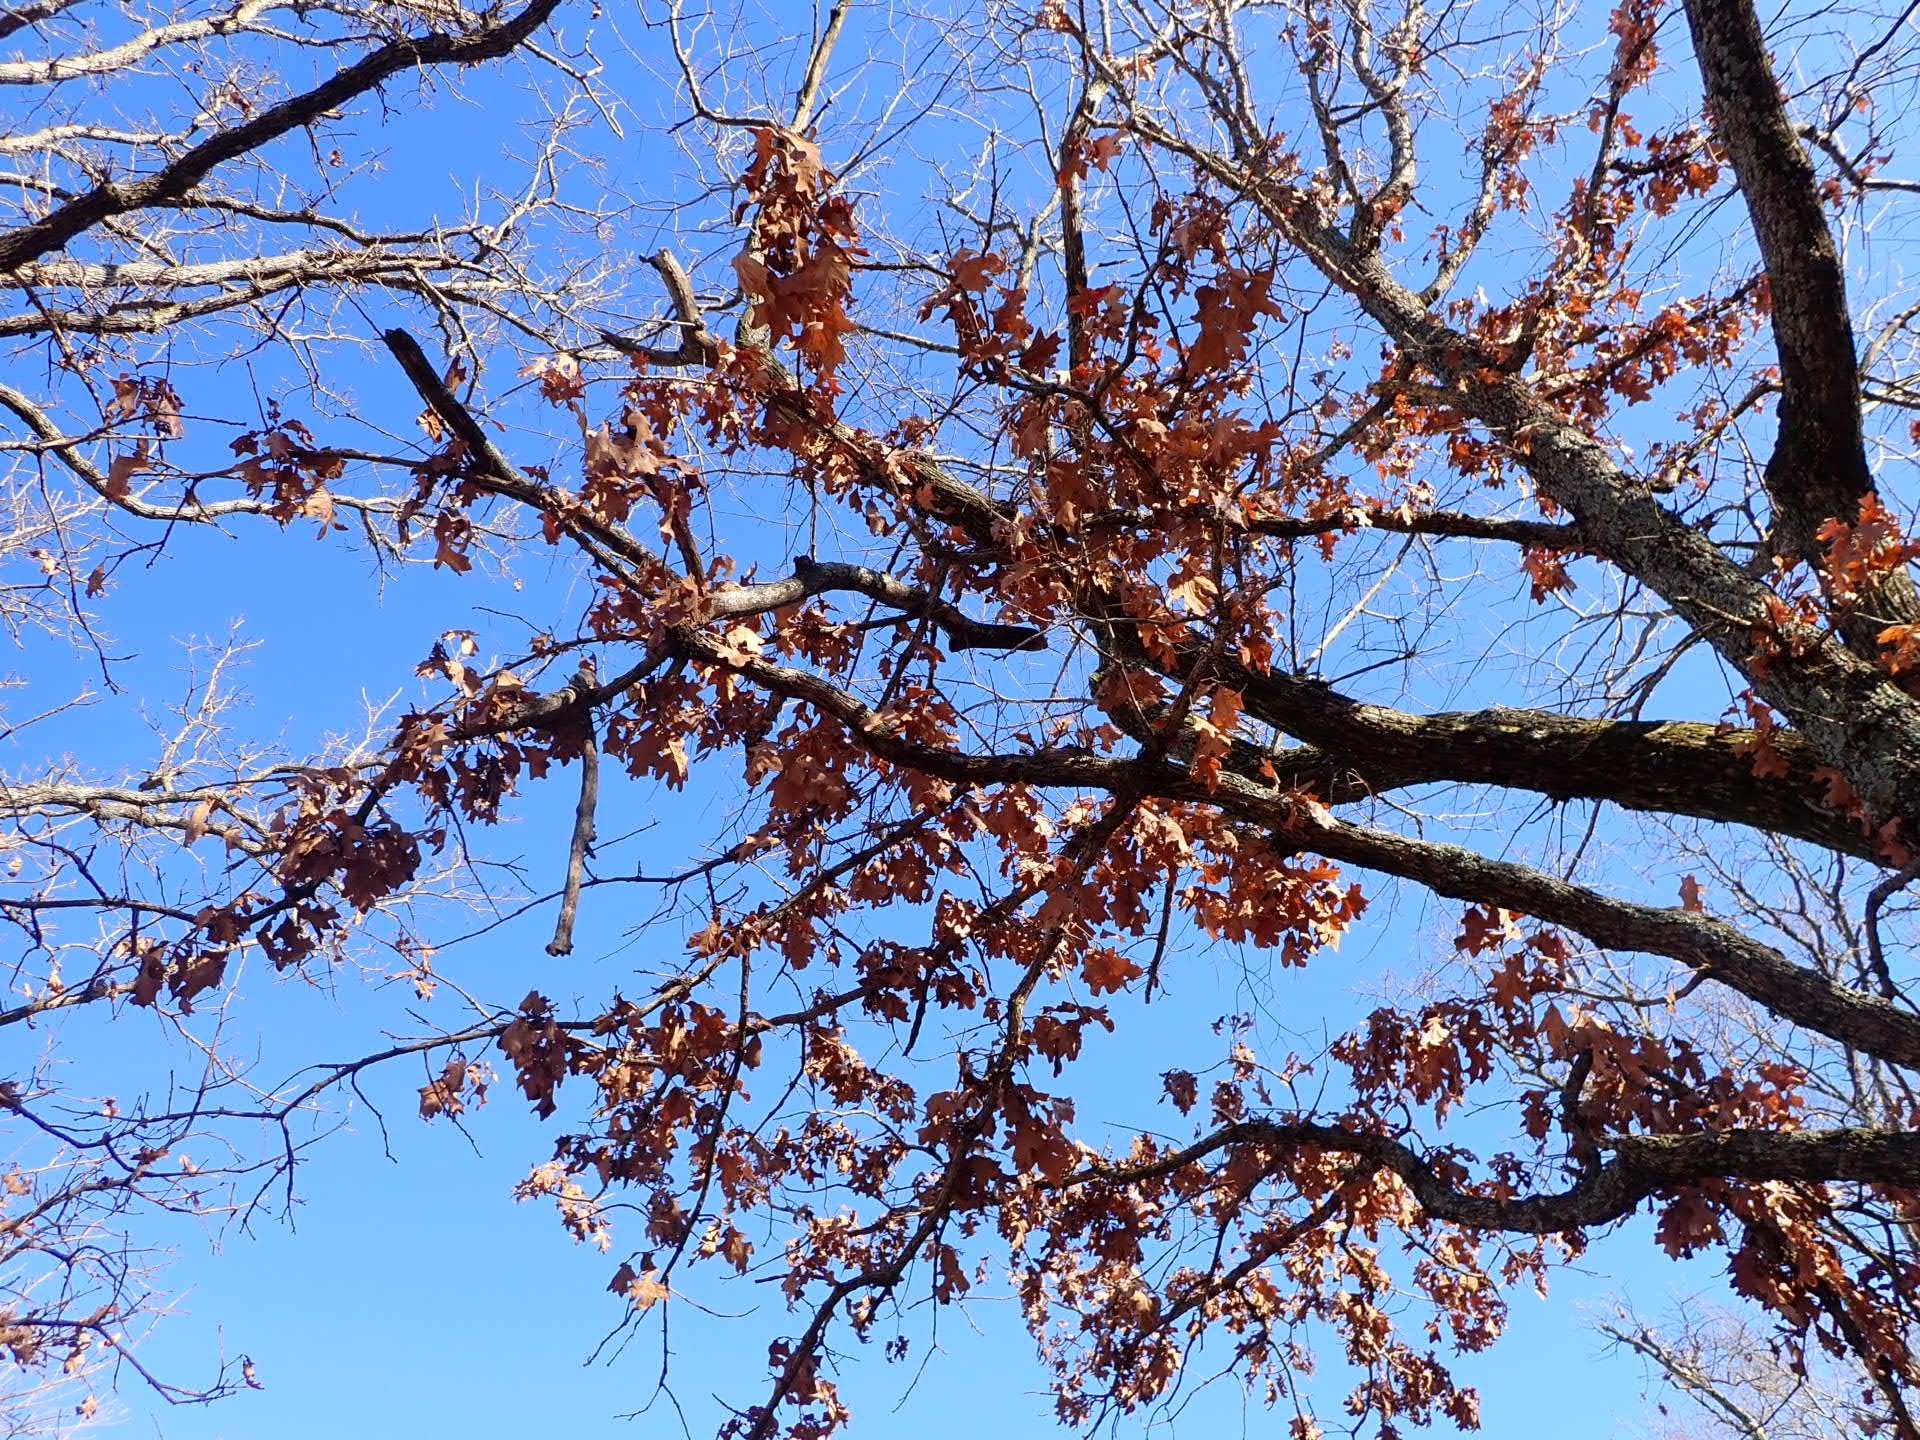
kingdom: Plantae
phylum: Tracheophyta
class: Magnoliopsida
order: Fagales
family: Fagaceae
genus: Quercus
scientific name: Quercus stellata
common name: Post oak
